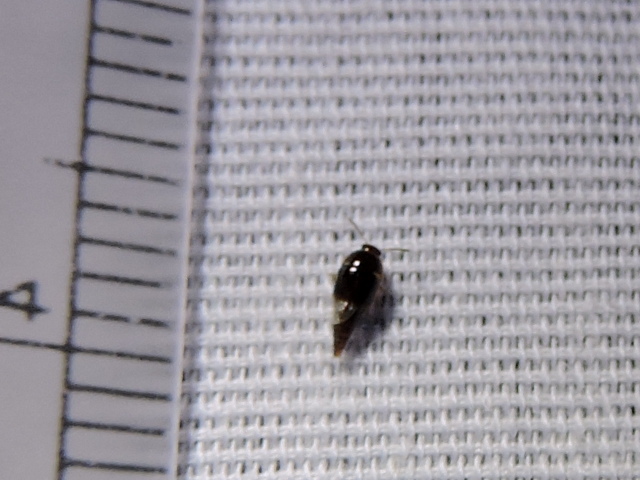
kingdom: Animalia
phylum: Arthropoda
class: Insecta
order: Coleoptera
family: Staphylinidae
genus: Coproporus
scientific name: Coproporus
